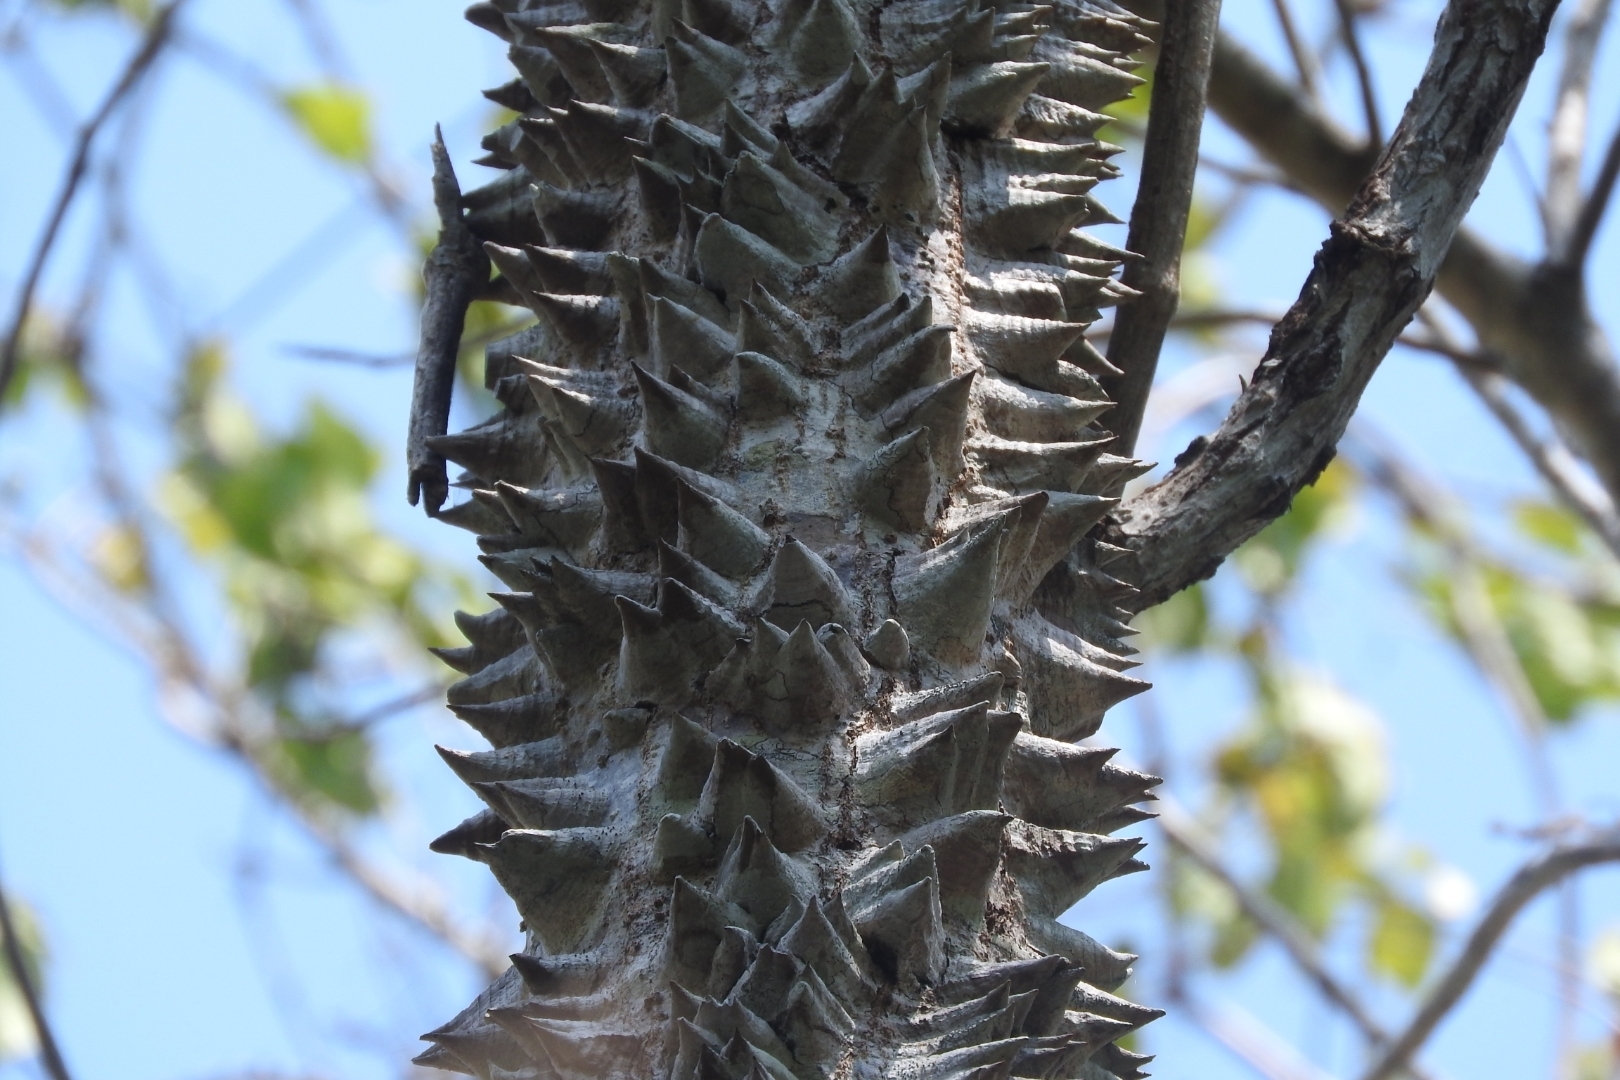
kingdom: Plantae
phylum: Tracheophyta
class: Magnoliopsida
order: Malvales
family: Malvaceae
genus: Ceiba
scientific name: Ceiba schottii
